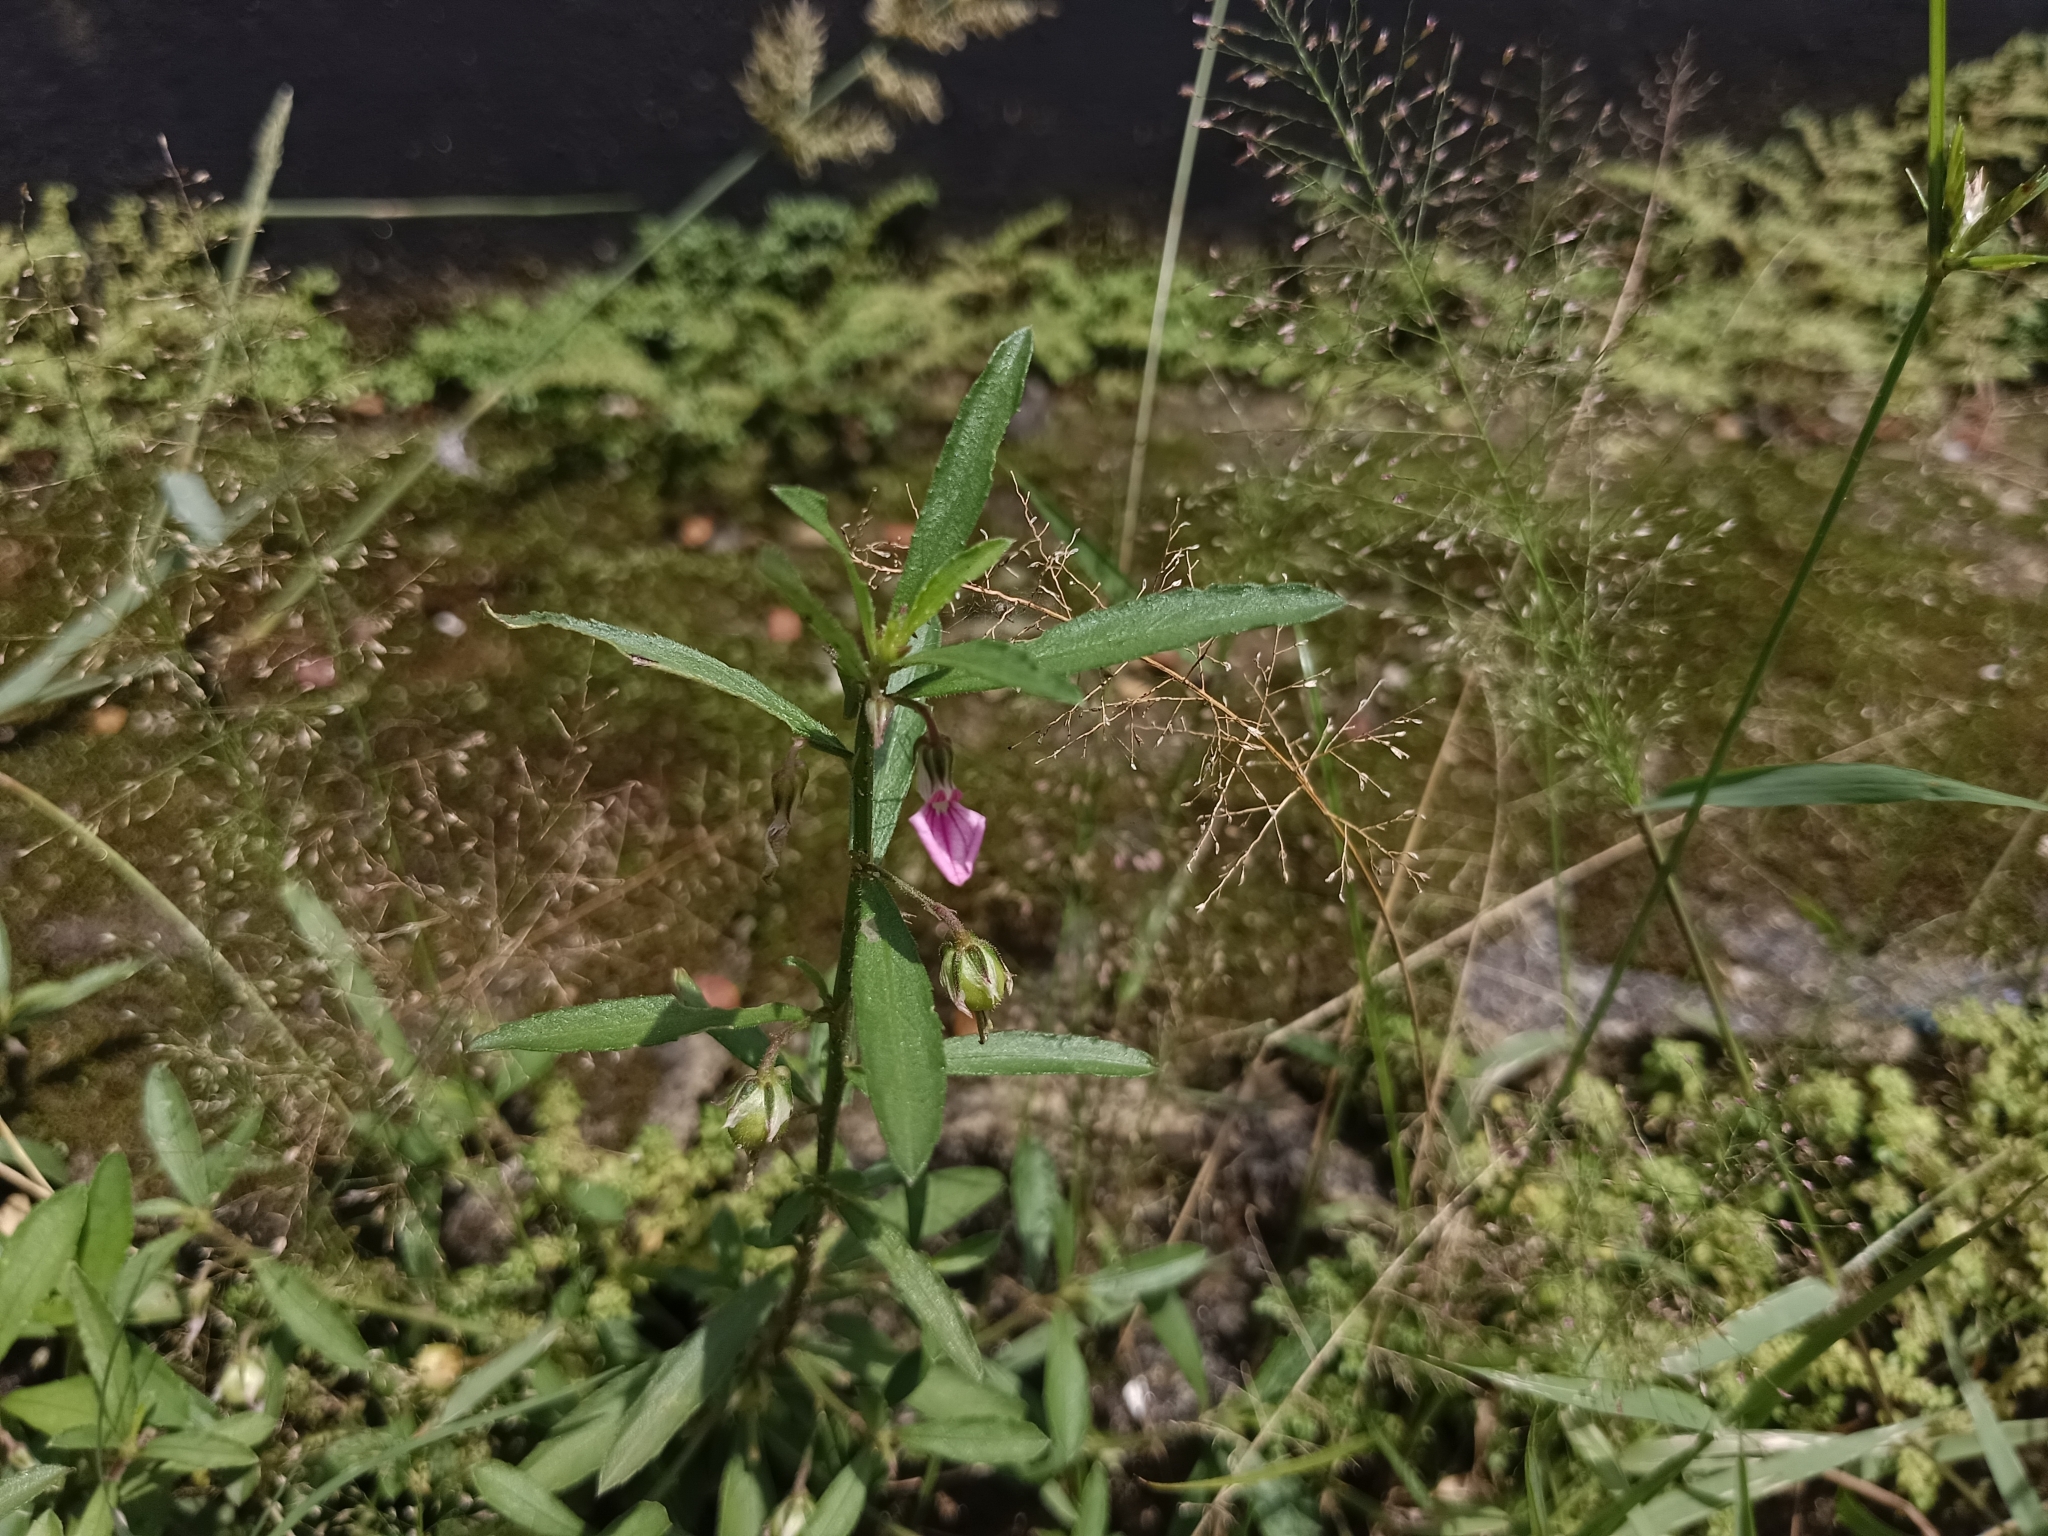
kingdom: Plantae
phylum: Tracheophyta
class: Magnoliopsida
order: Malpighiales
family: Violaceae
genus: Pigea
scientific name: Pigea enneasperma
